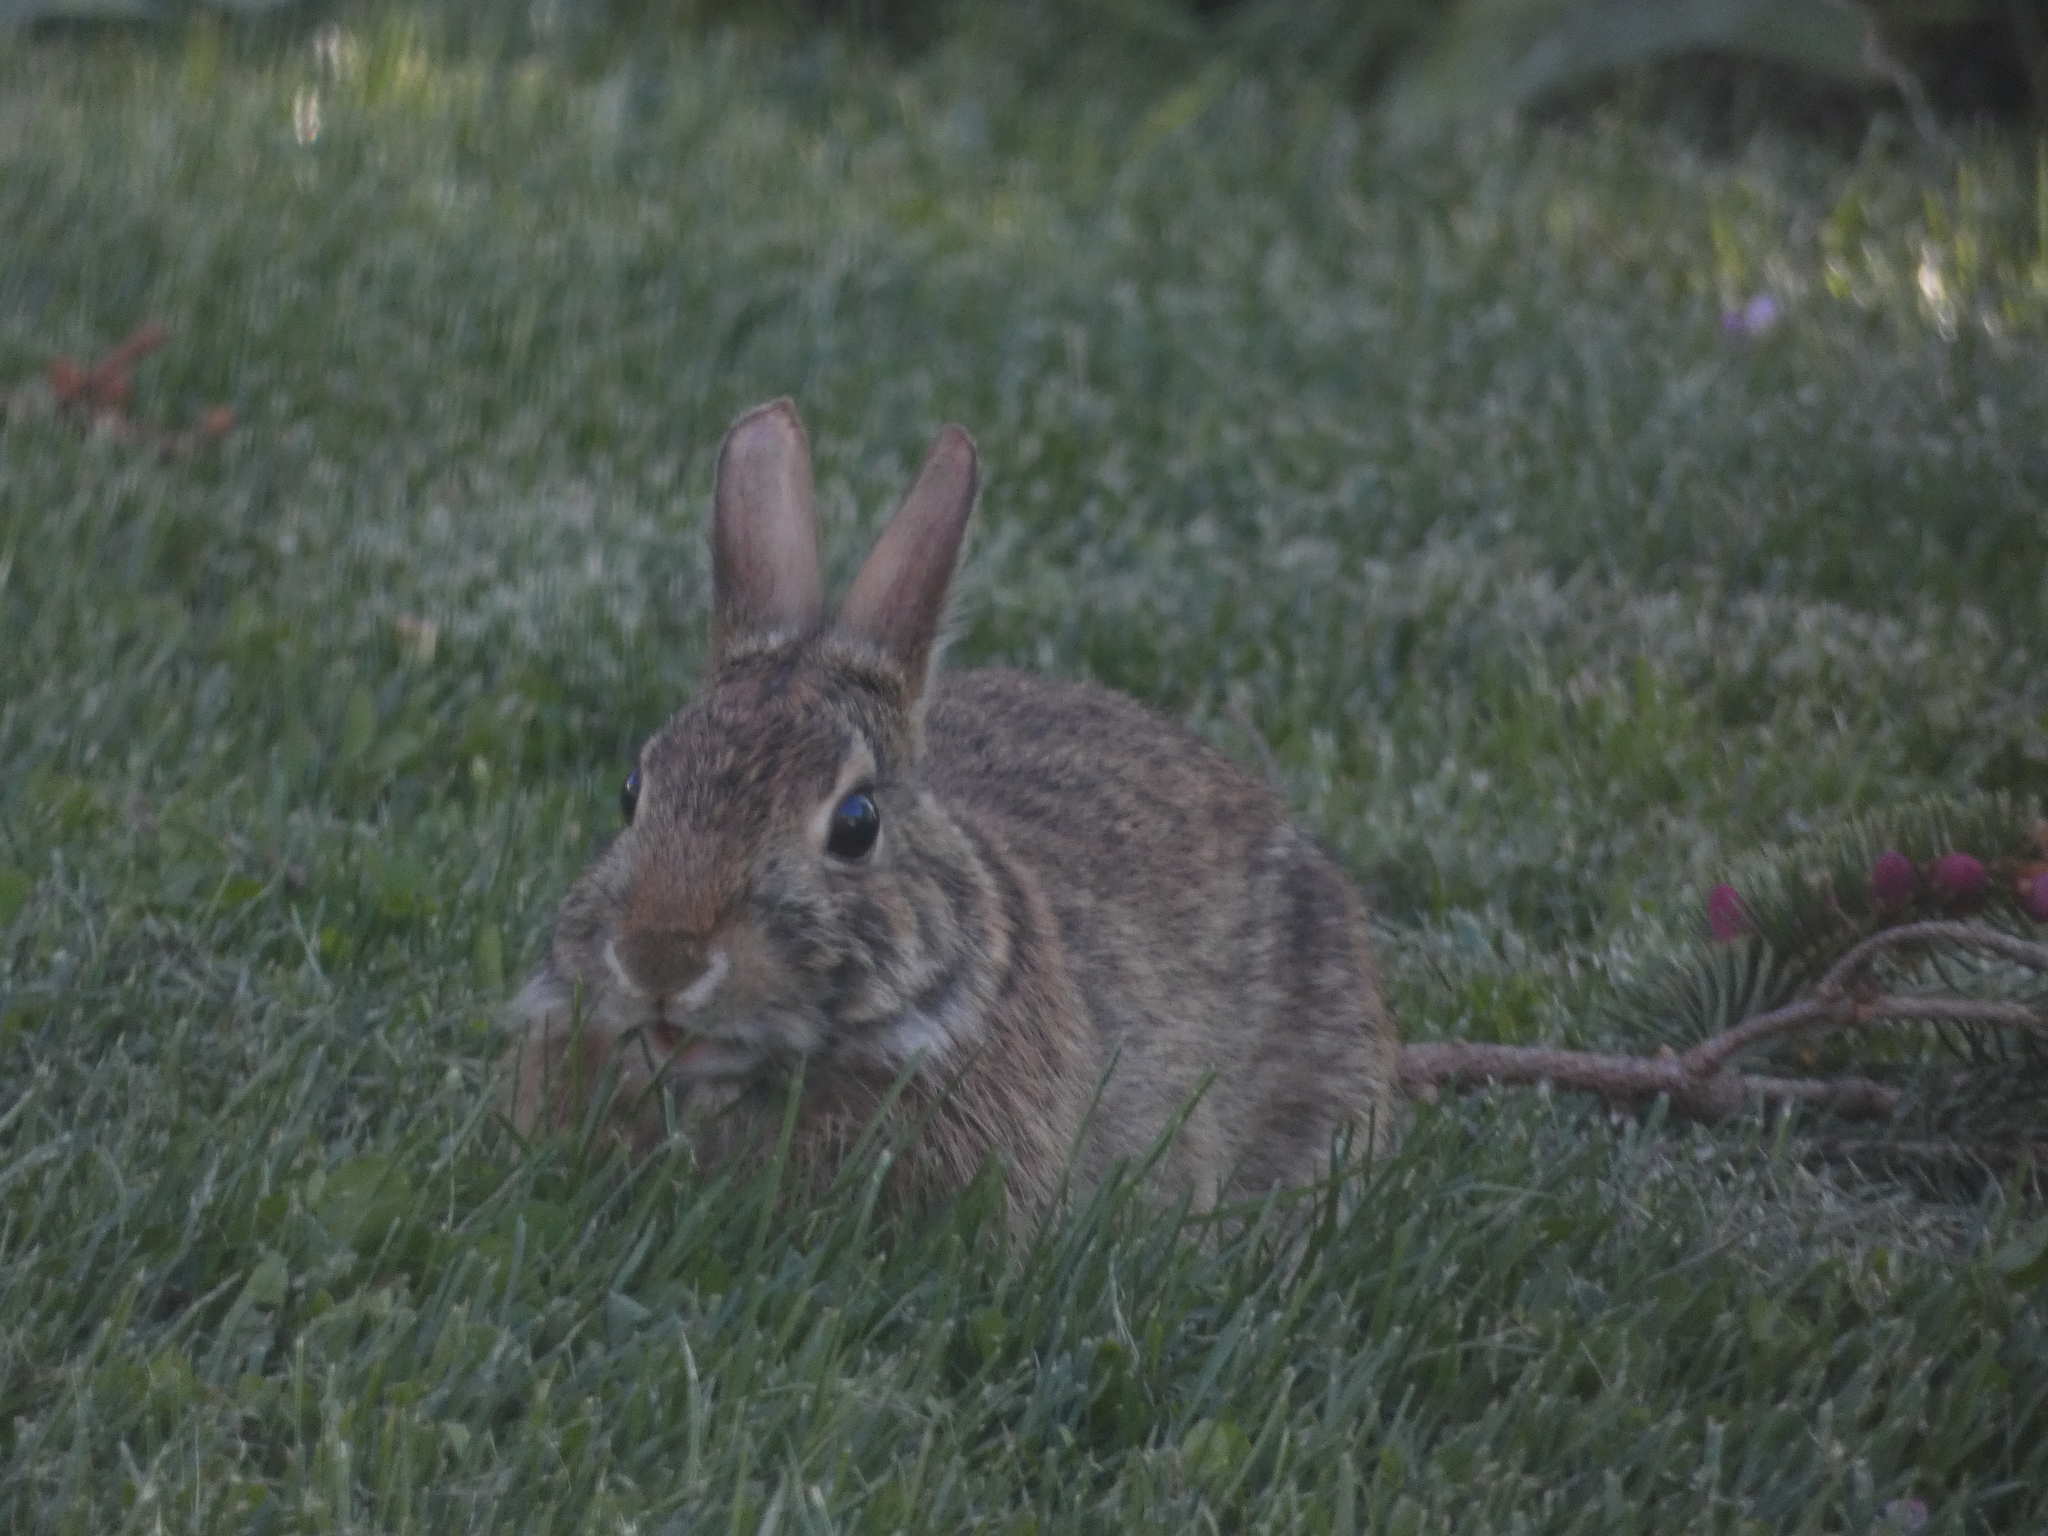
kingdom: Animalia
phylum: Chordata
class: Mammalia
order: Lagomorpha
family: Leporidae
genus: Sylvilagus
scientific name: Sylvilagus floridanus
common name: Eastern cottontail
